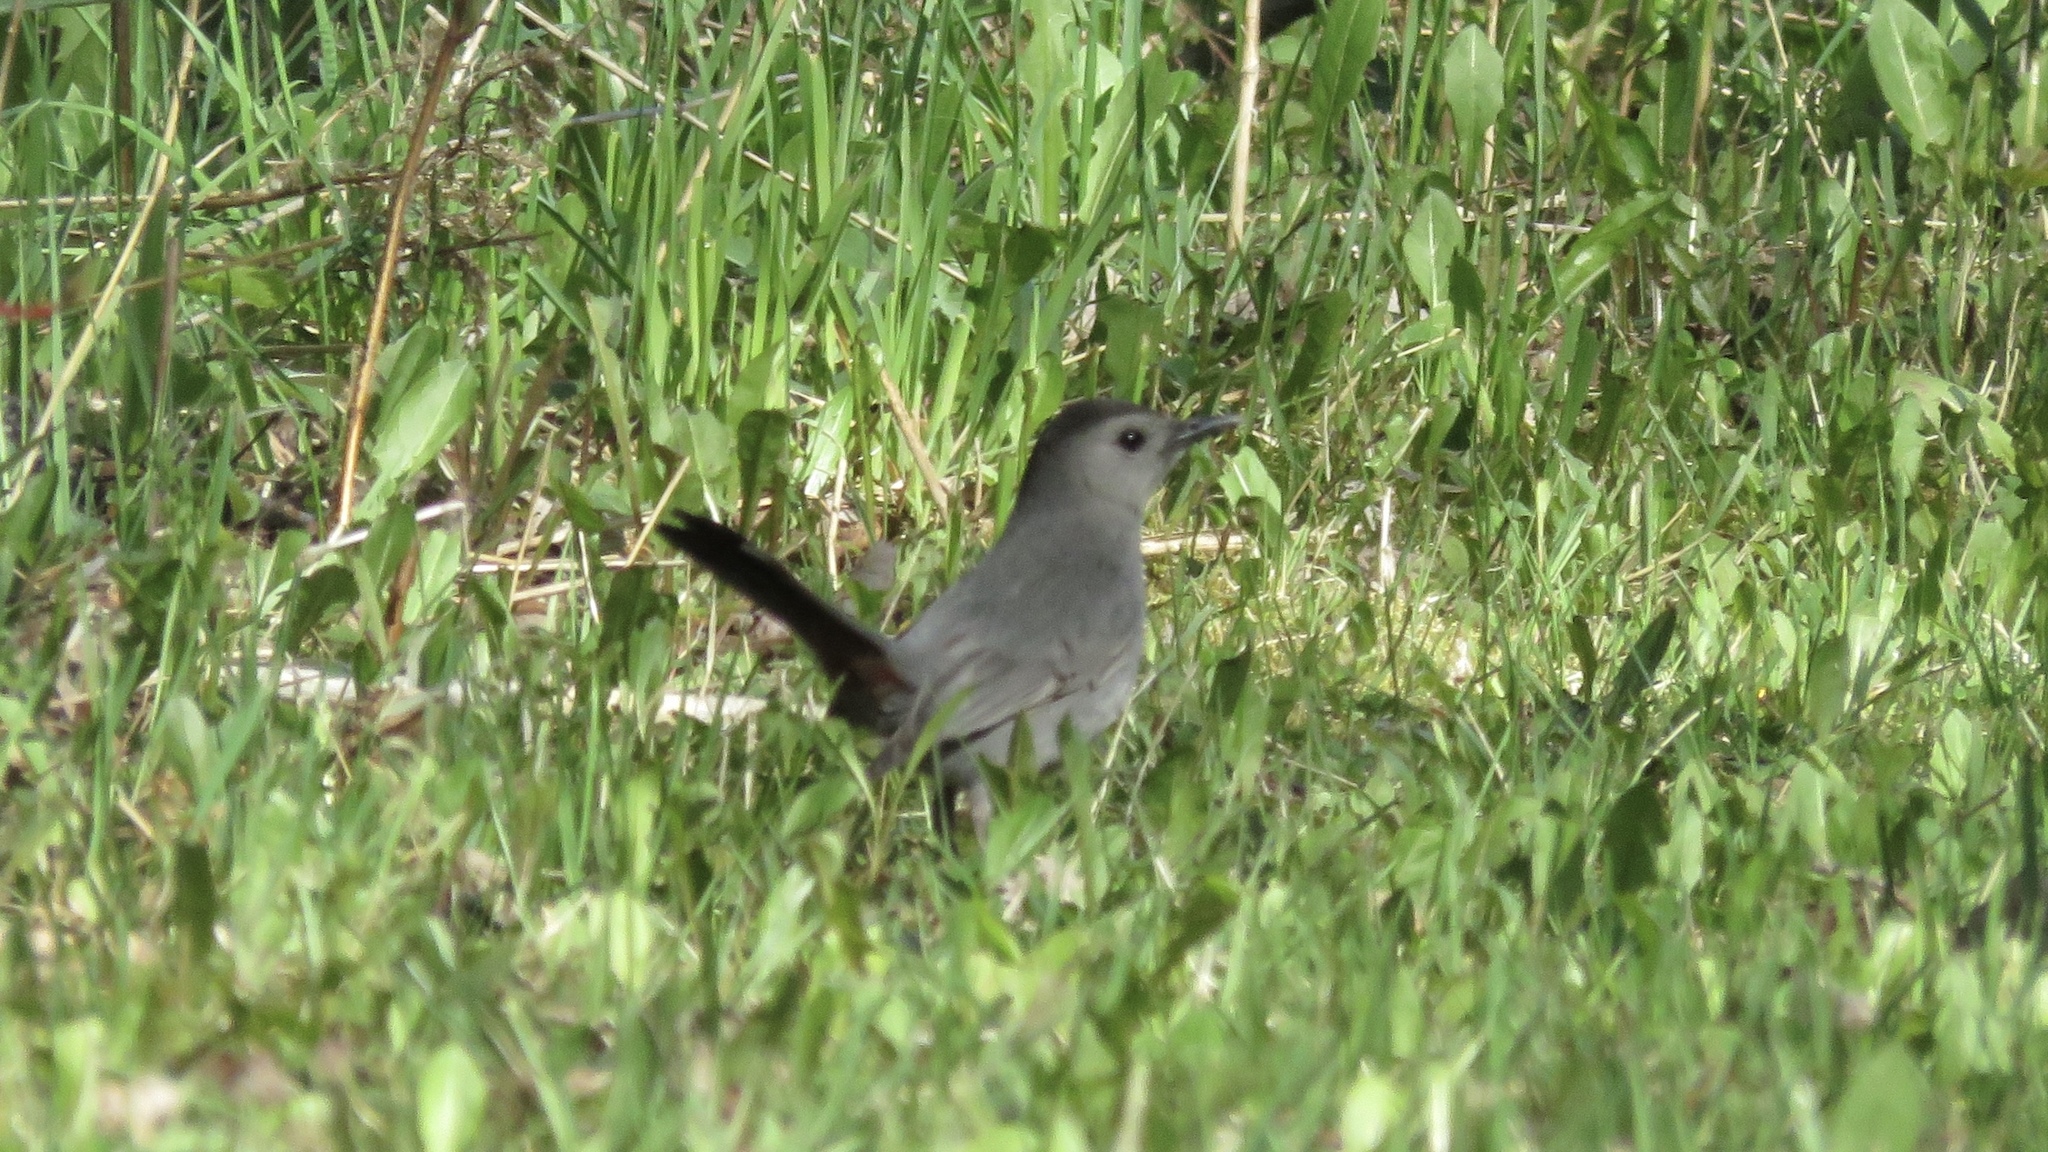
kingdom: Animalia
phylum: Chordata
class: Aves
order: Passeriformes
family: Mimidae
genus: Dumetella
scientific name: Dumetella carolinensis
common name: Gray catbird
